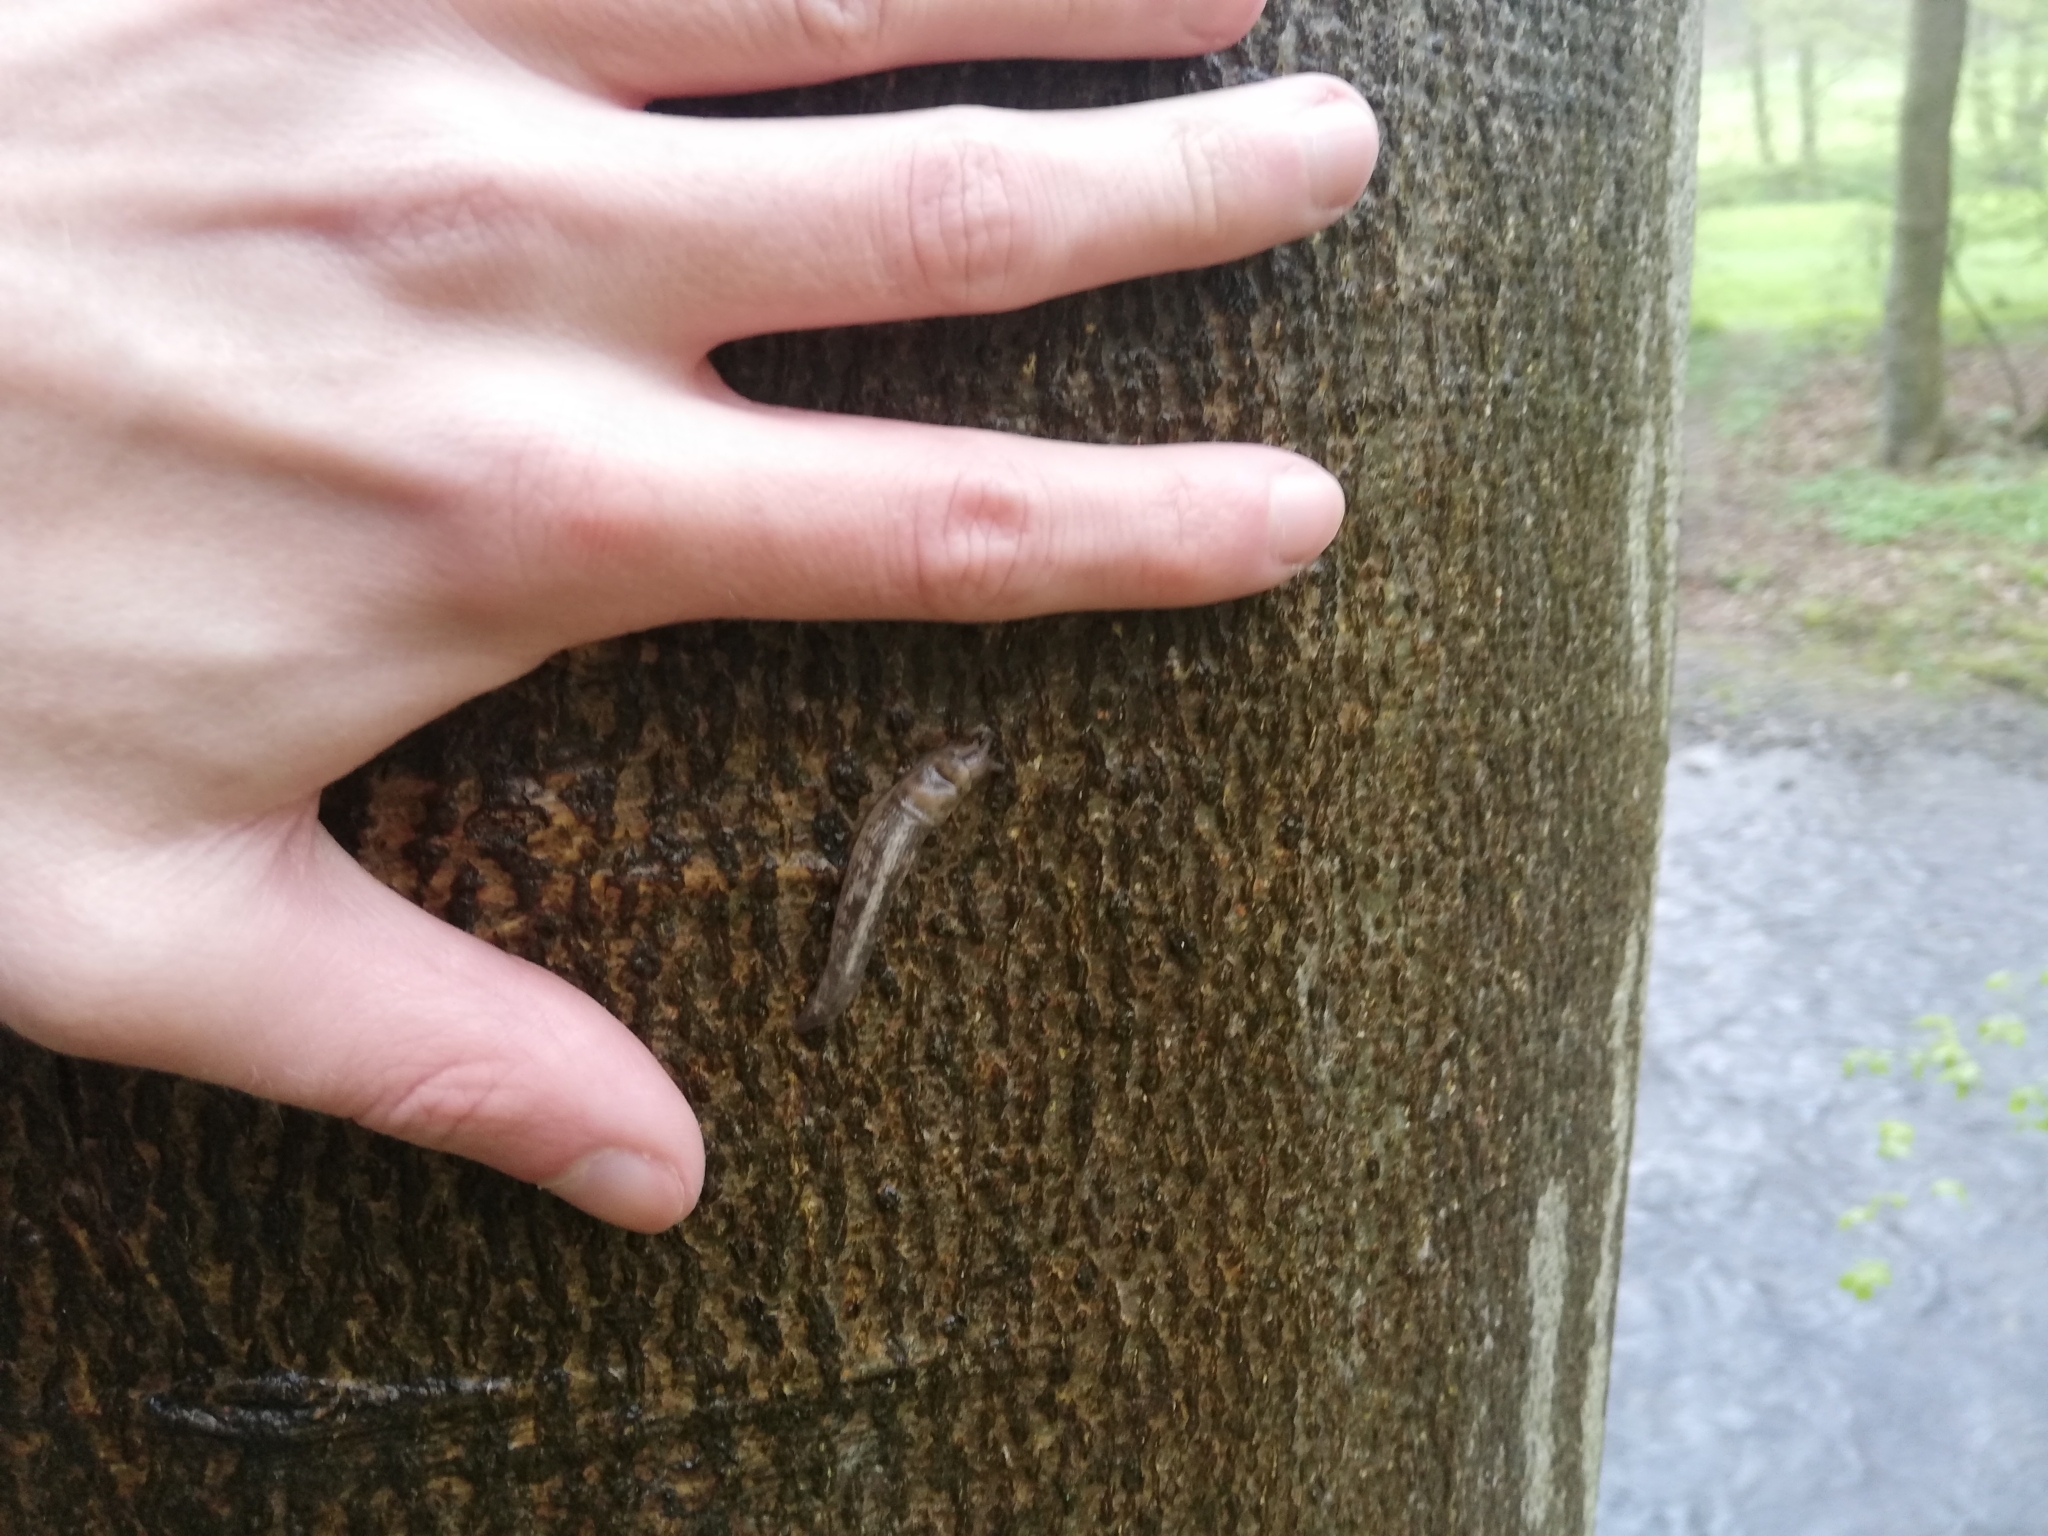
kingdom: Animalia
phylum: Mollusca
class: Gastropoda
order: Stylommatophora
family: Limacidae
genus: Lehmannia
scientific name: Lehmannia marginata
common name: Tree slug
